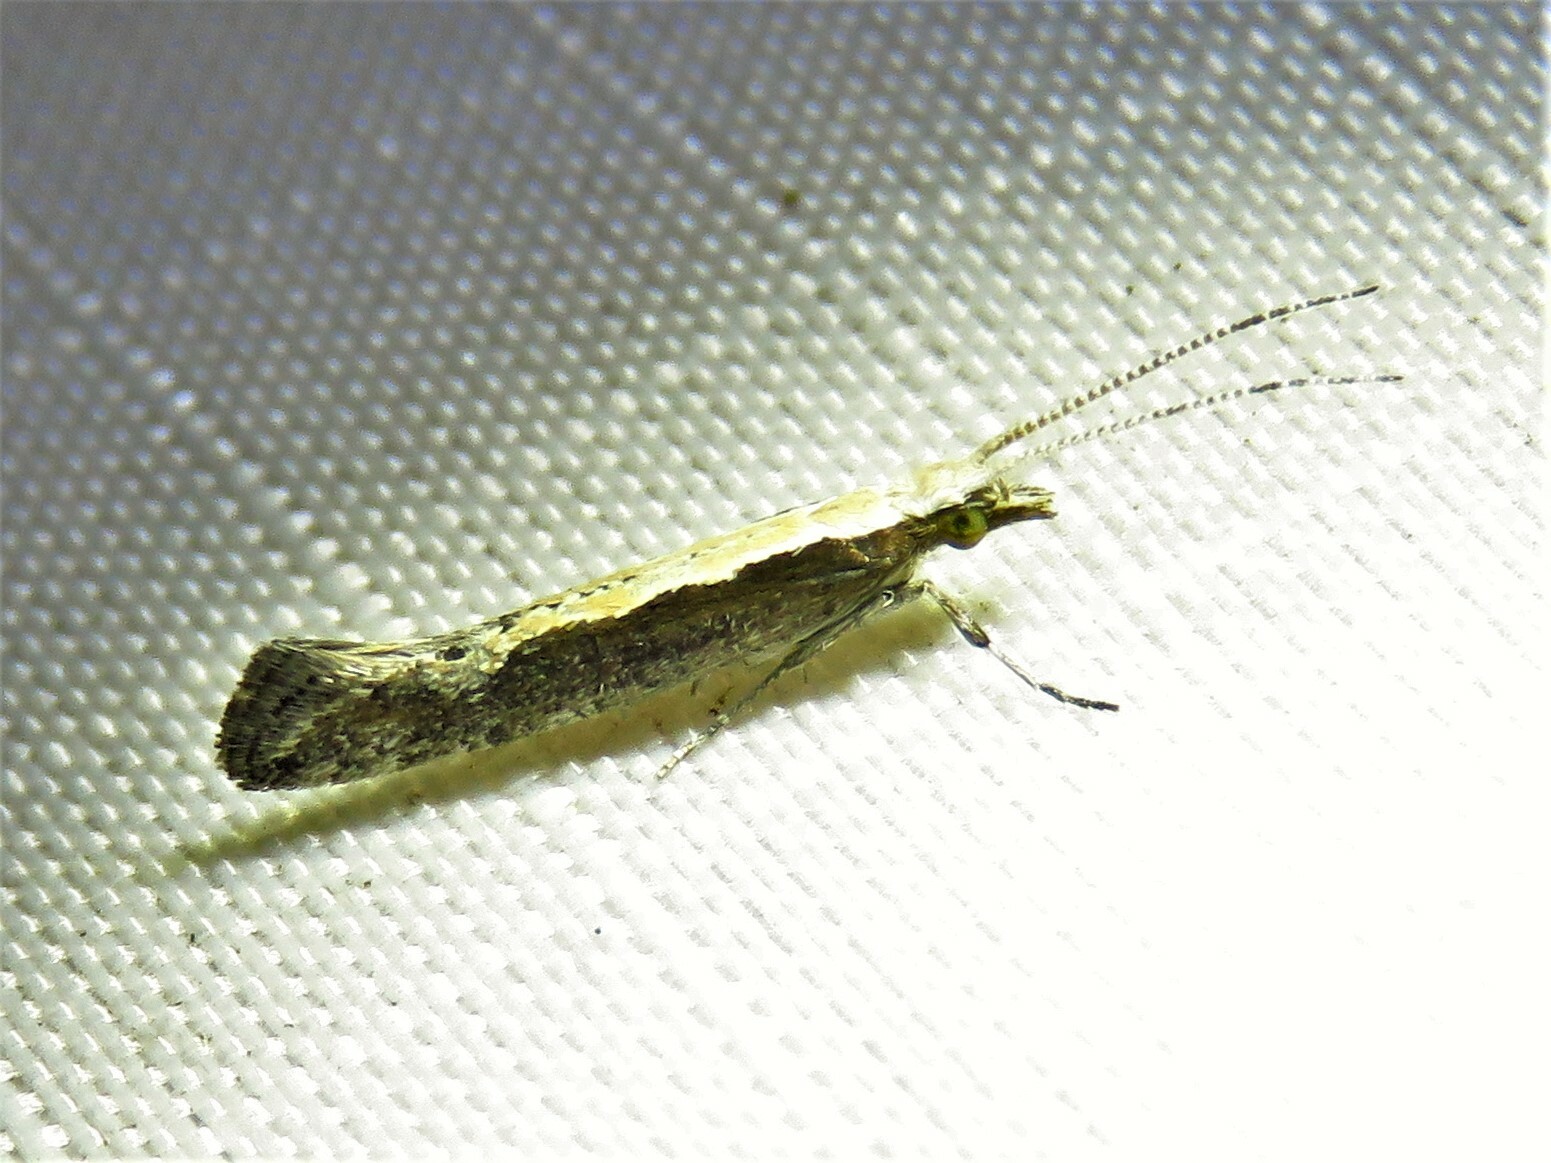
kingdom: Animalia
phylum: Arthropoda
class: Insecta
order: Lepidoptera
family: Plutellidae
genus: Plutella
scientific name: Plutella xylostella
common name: Diamond-back moth
